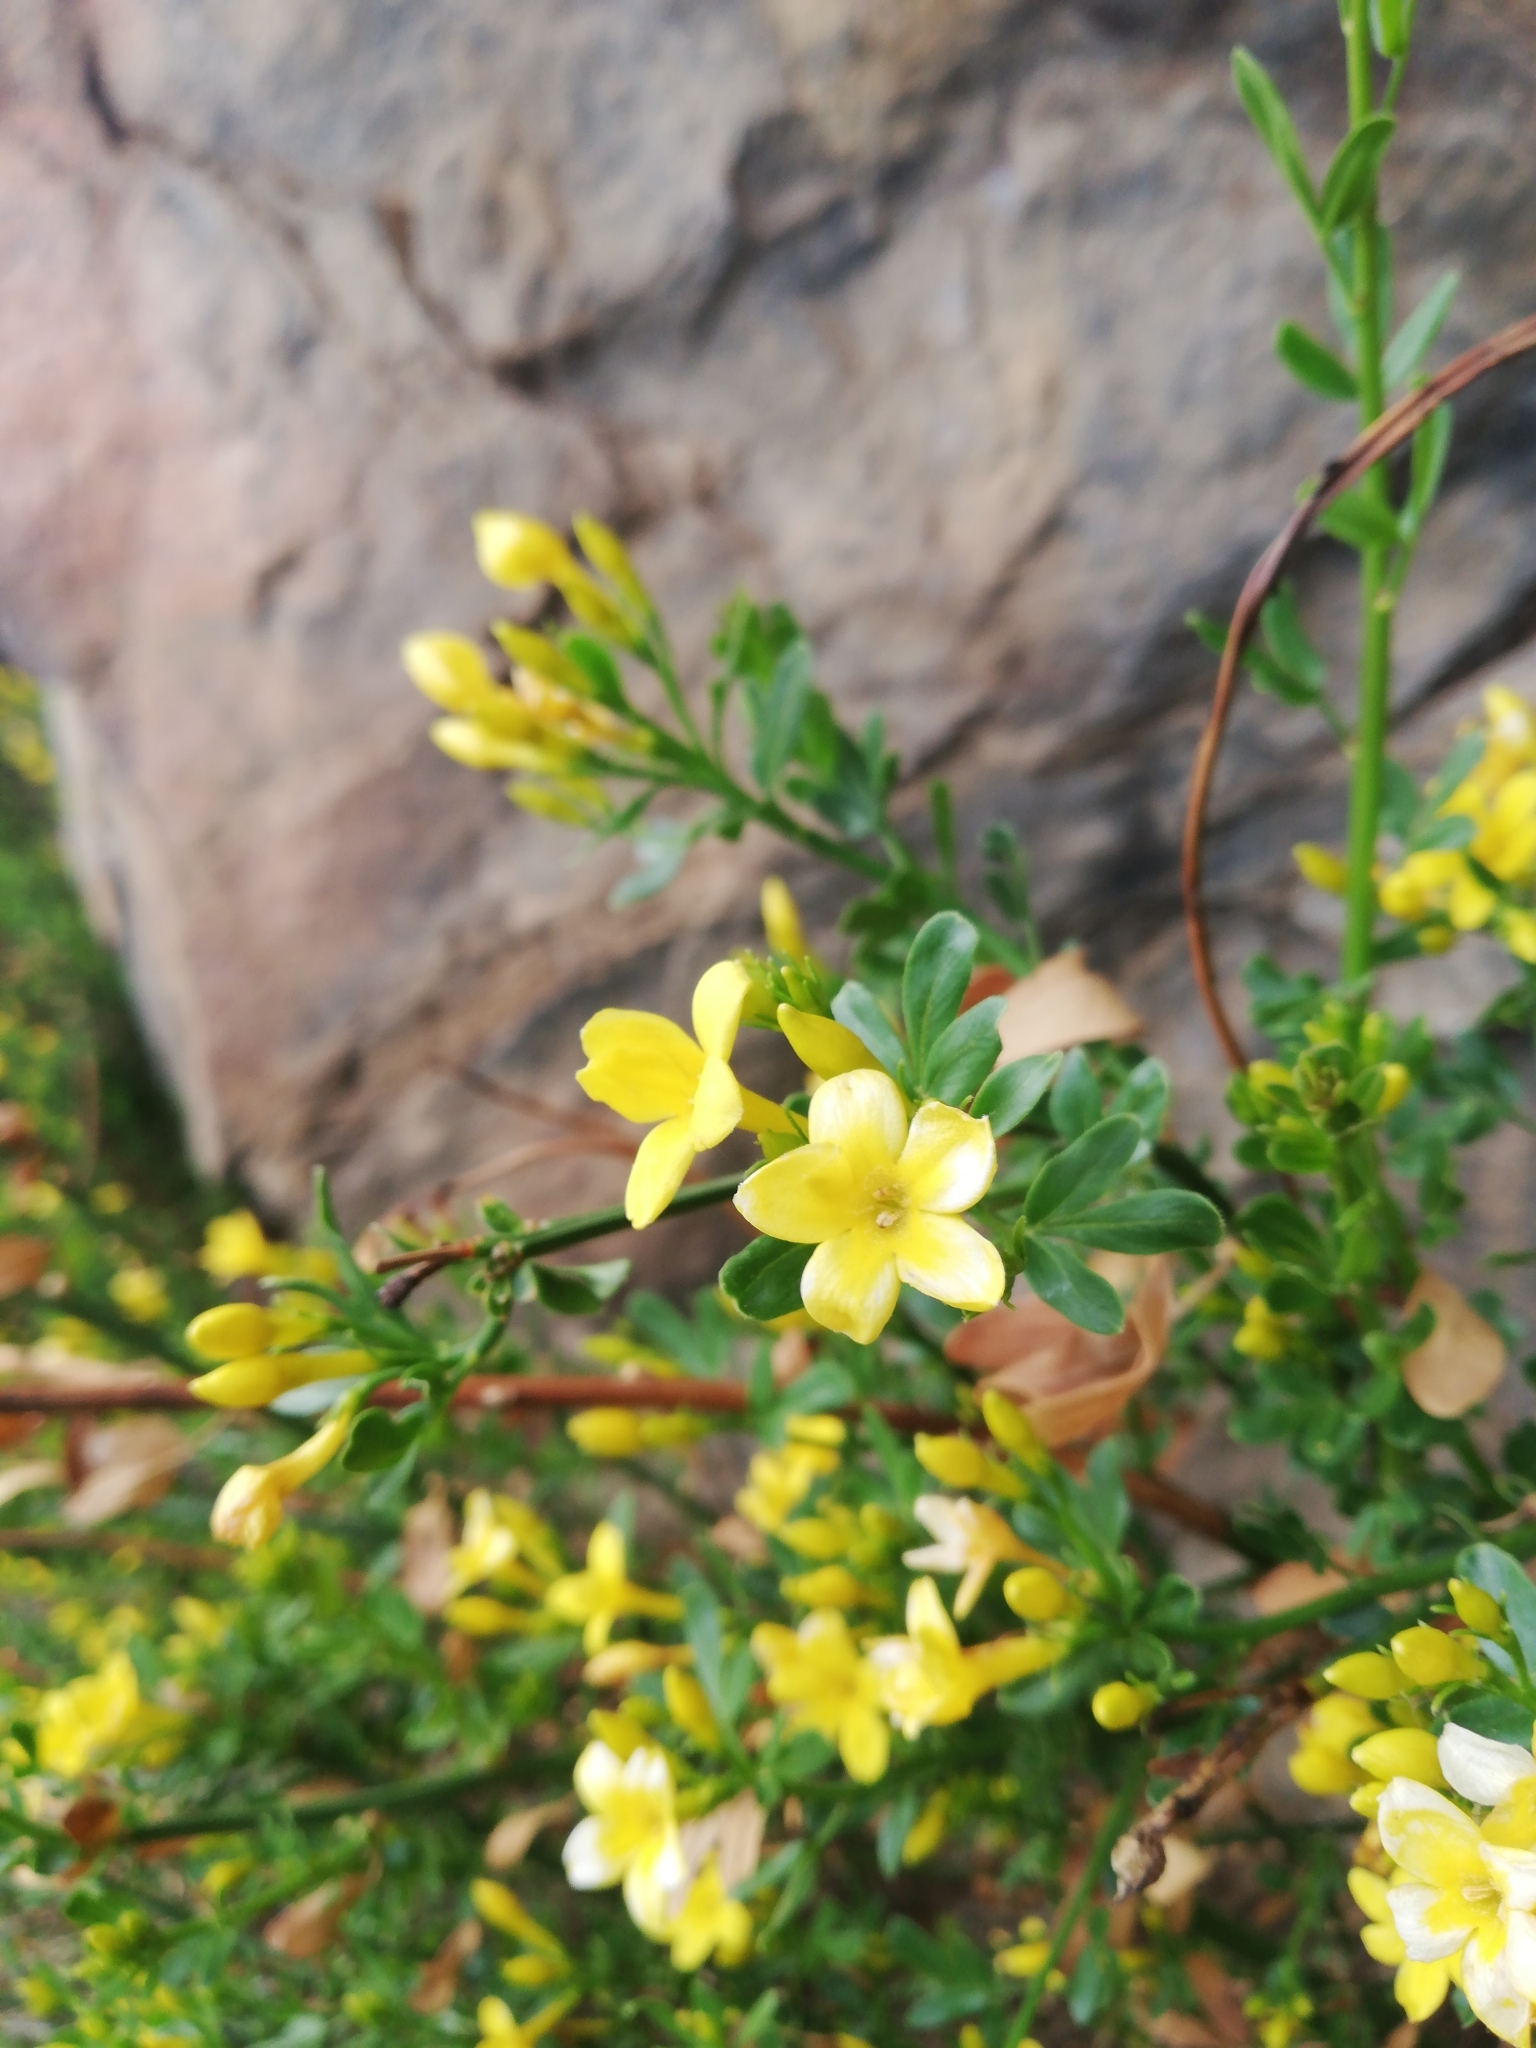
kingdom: Plantae
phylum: Tracheophyta
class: Magnoliopsida
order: Lamiales
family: Oleaceae
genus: Chrysojasminum
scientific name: Chrysojasminum fruticans
